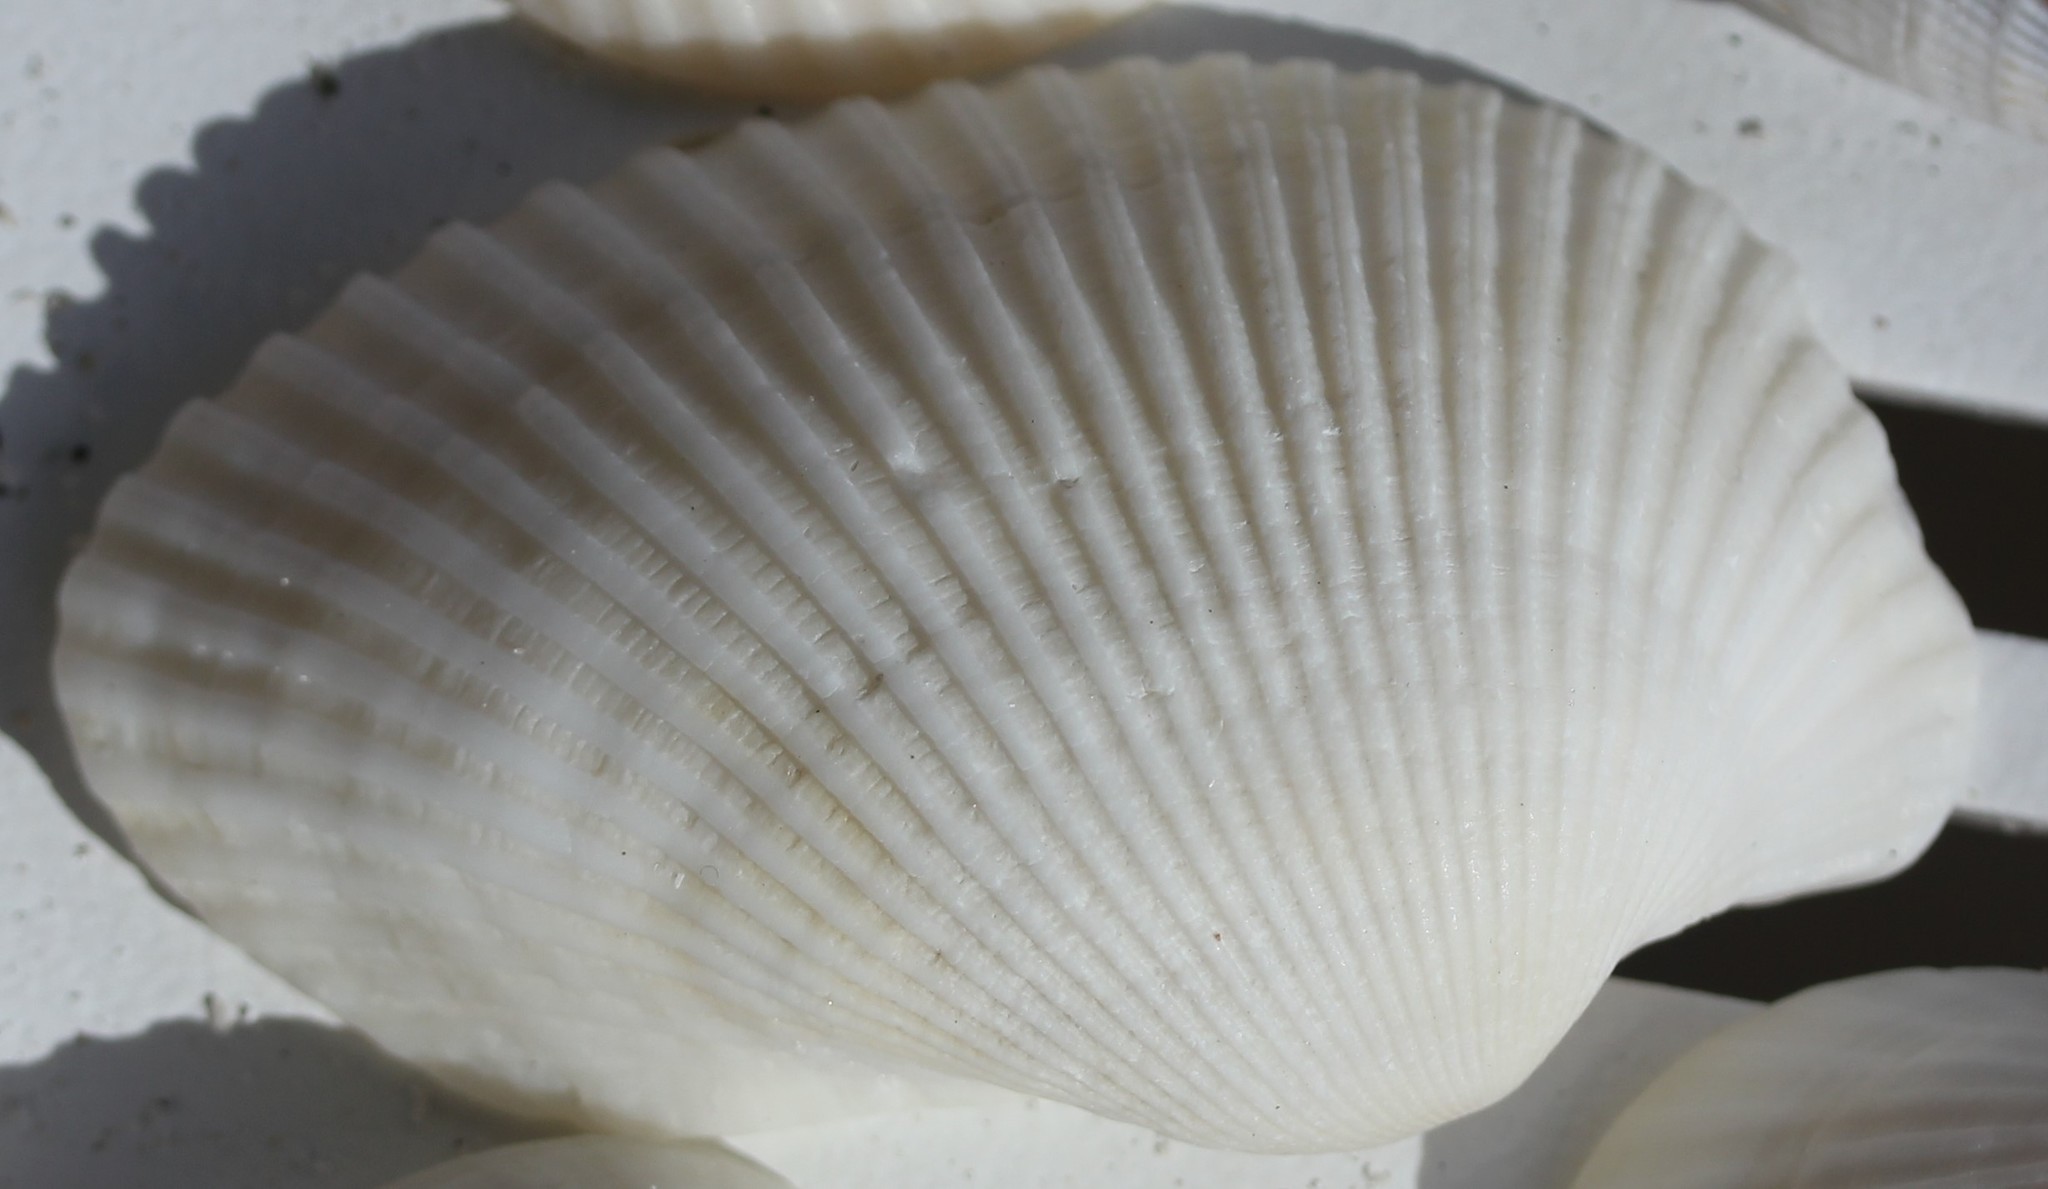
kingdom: Animalia
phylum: Mollusca
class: Bivalvia
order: Arcida
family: Arcidae
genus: Anadara
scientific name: Anadara secticostata
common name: Cut-ribbed ark
